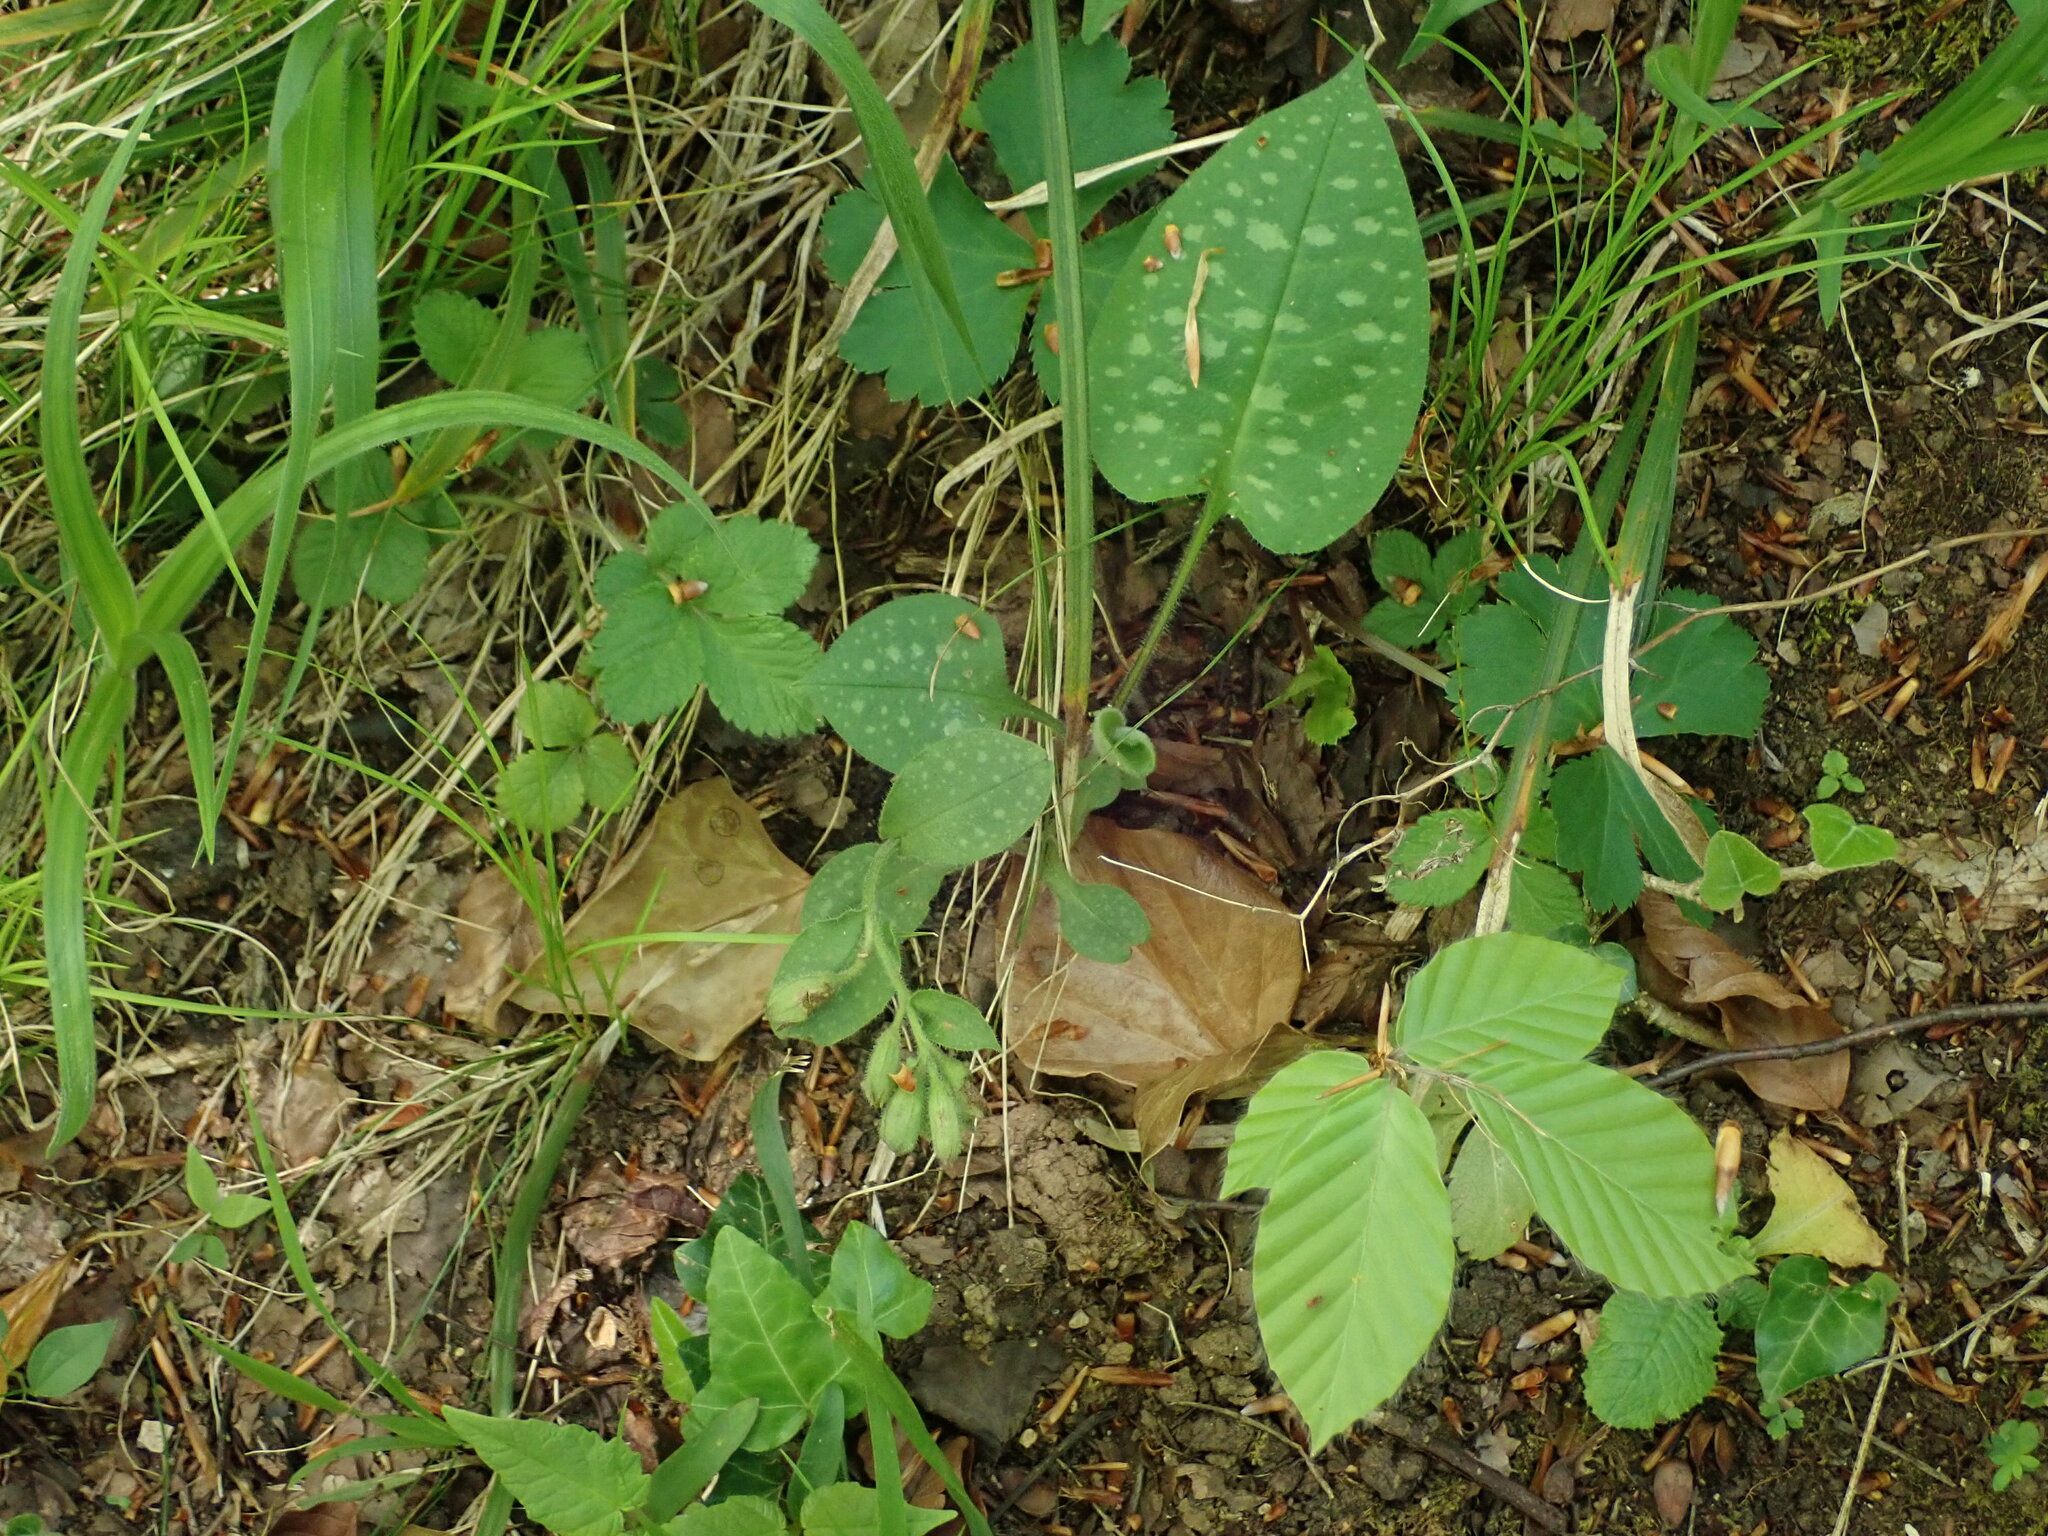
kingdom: Plantae
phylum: Tracheophyta
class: Magnoliopsida
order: Boraginales
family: Boraginaceae
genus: Pulmonaria
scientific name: Pulmonaria officinalis
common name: Lungwort
